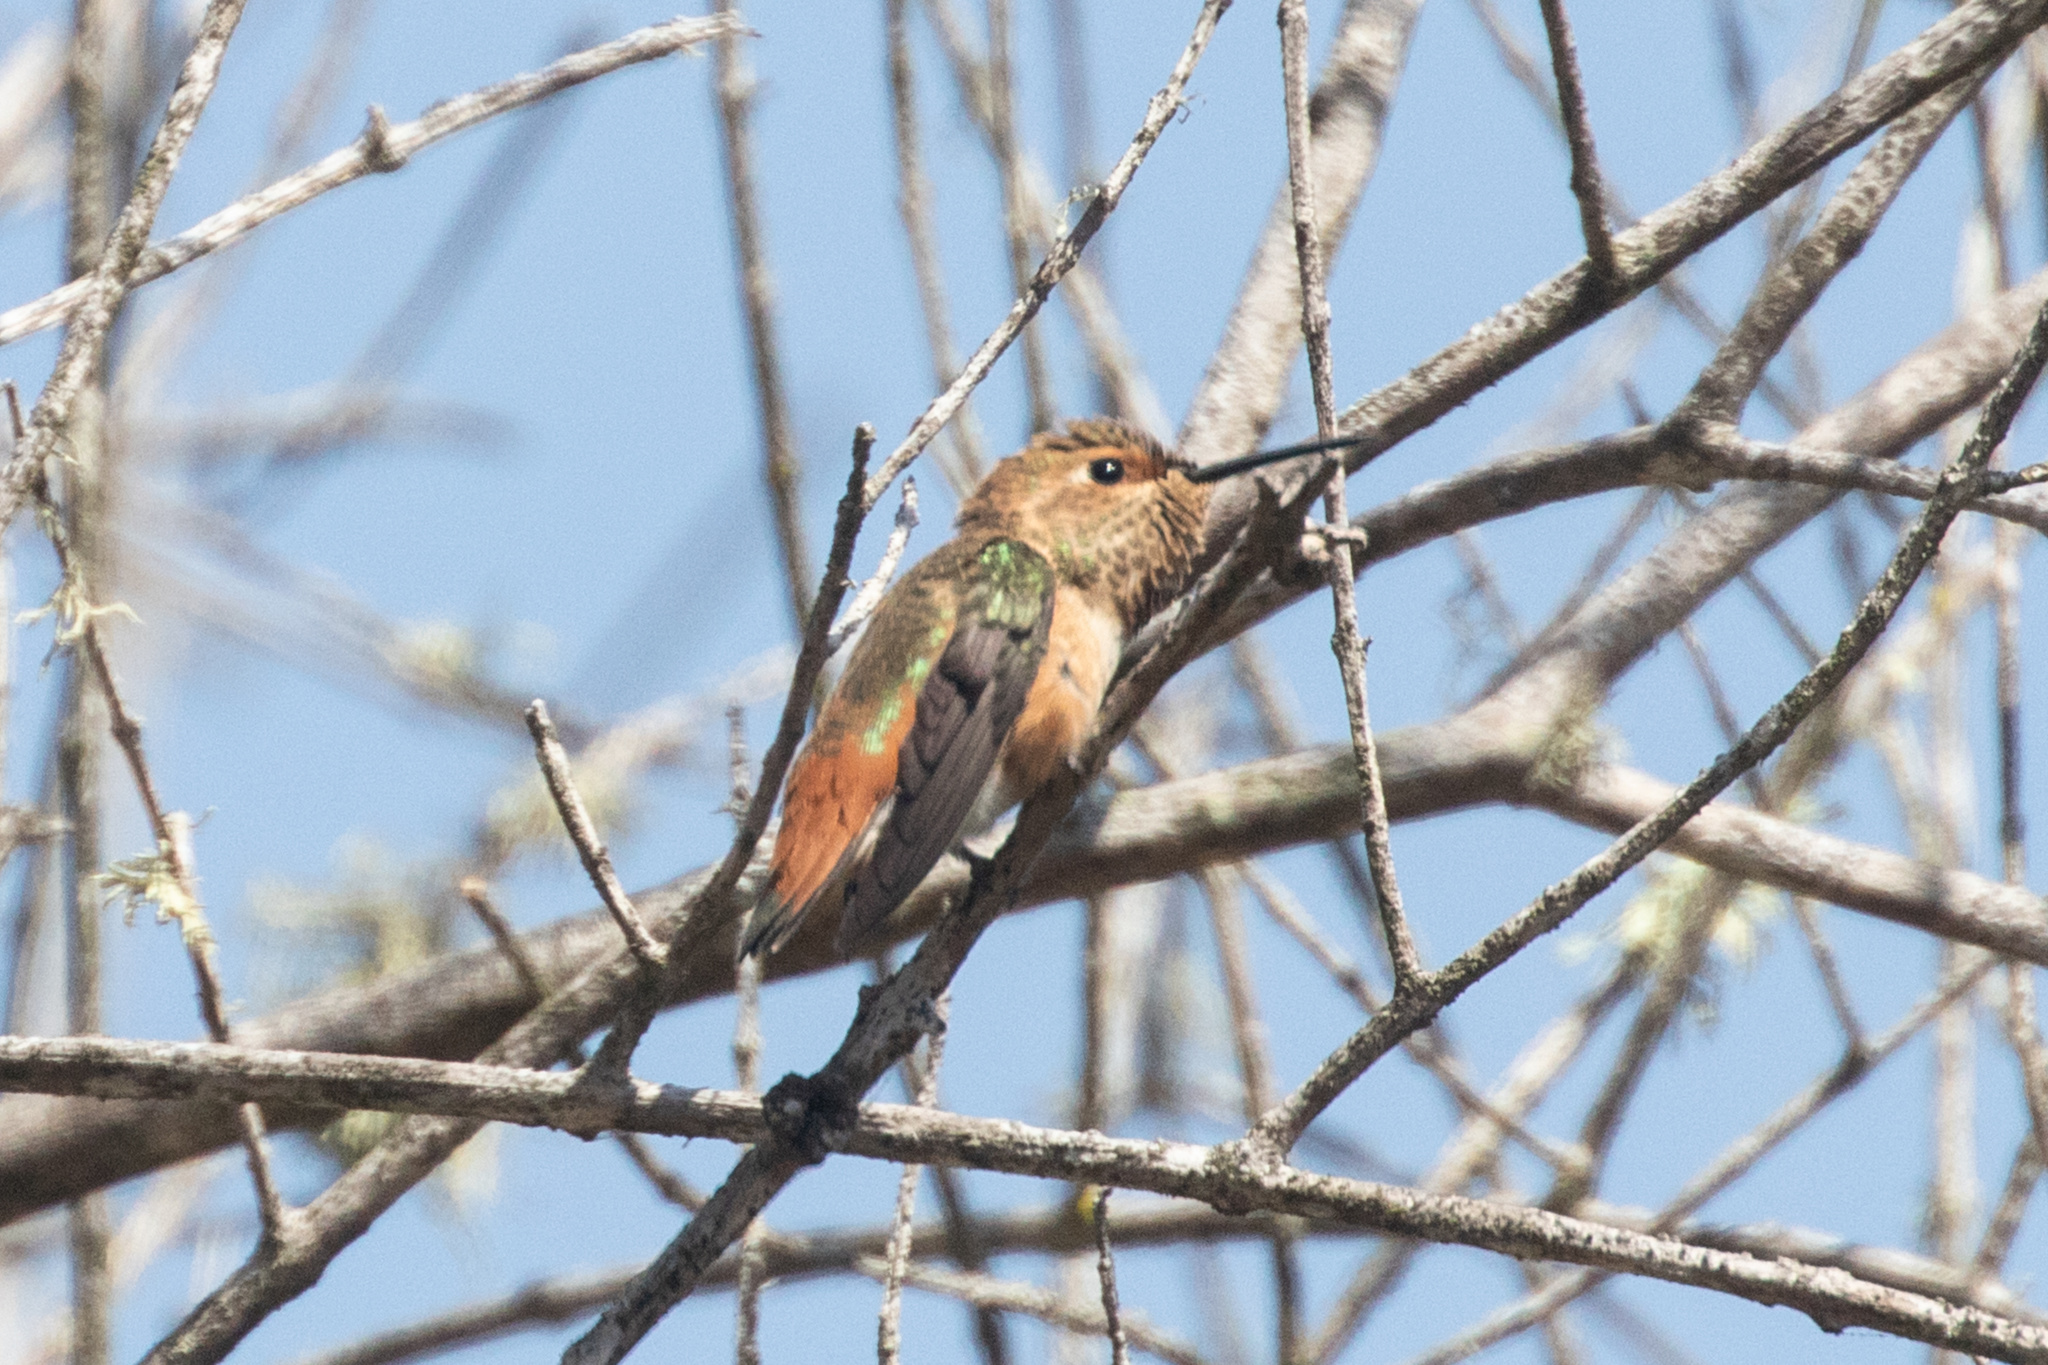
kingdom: Animalia
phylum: Chordata
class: Aves
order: Apodiformes
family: Trochilidae
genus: Selasphorus
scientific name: Selasphorus
